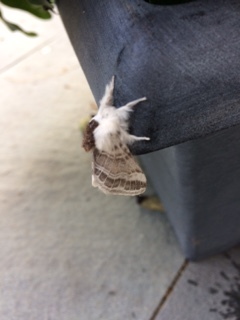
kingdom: Animalia
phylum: Arthropoda
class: Insecta
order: Lepidoptera
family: Lasiocampidae
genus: Tolype
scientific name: Tolype velleda
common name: Large tolype moth
